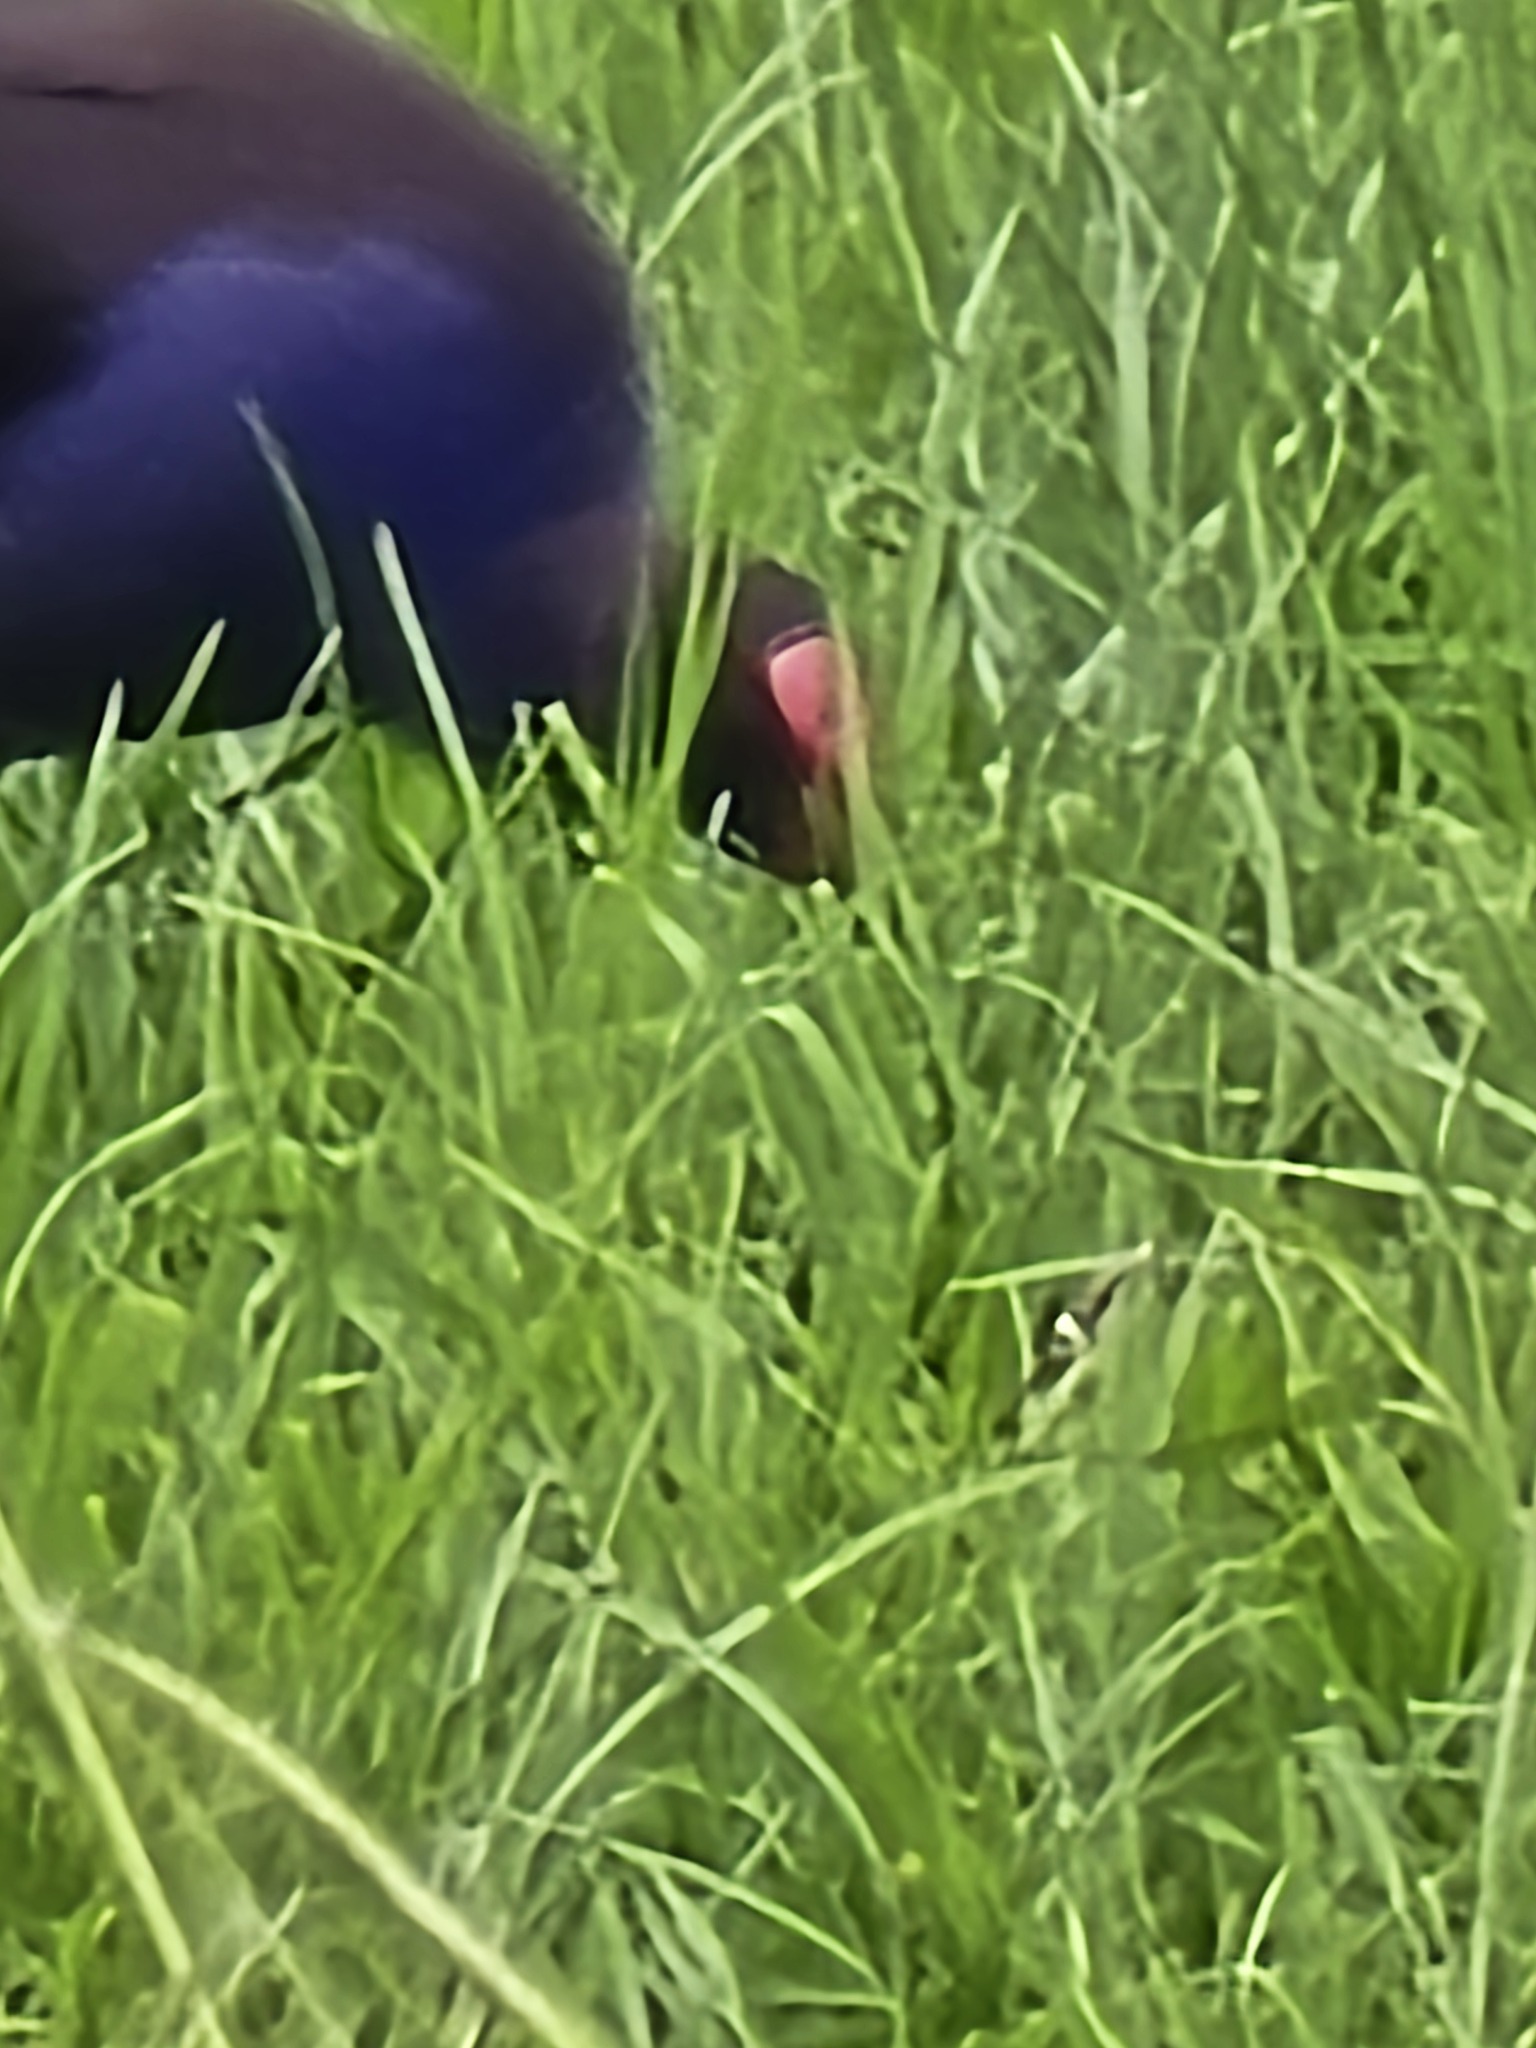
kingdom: Animalia
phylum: Chordata
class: Aves
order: Gruiformes
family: Rallidae
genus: Porphyrio
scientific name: Porphyrio melanotus
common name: Australasian swamphen
